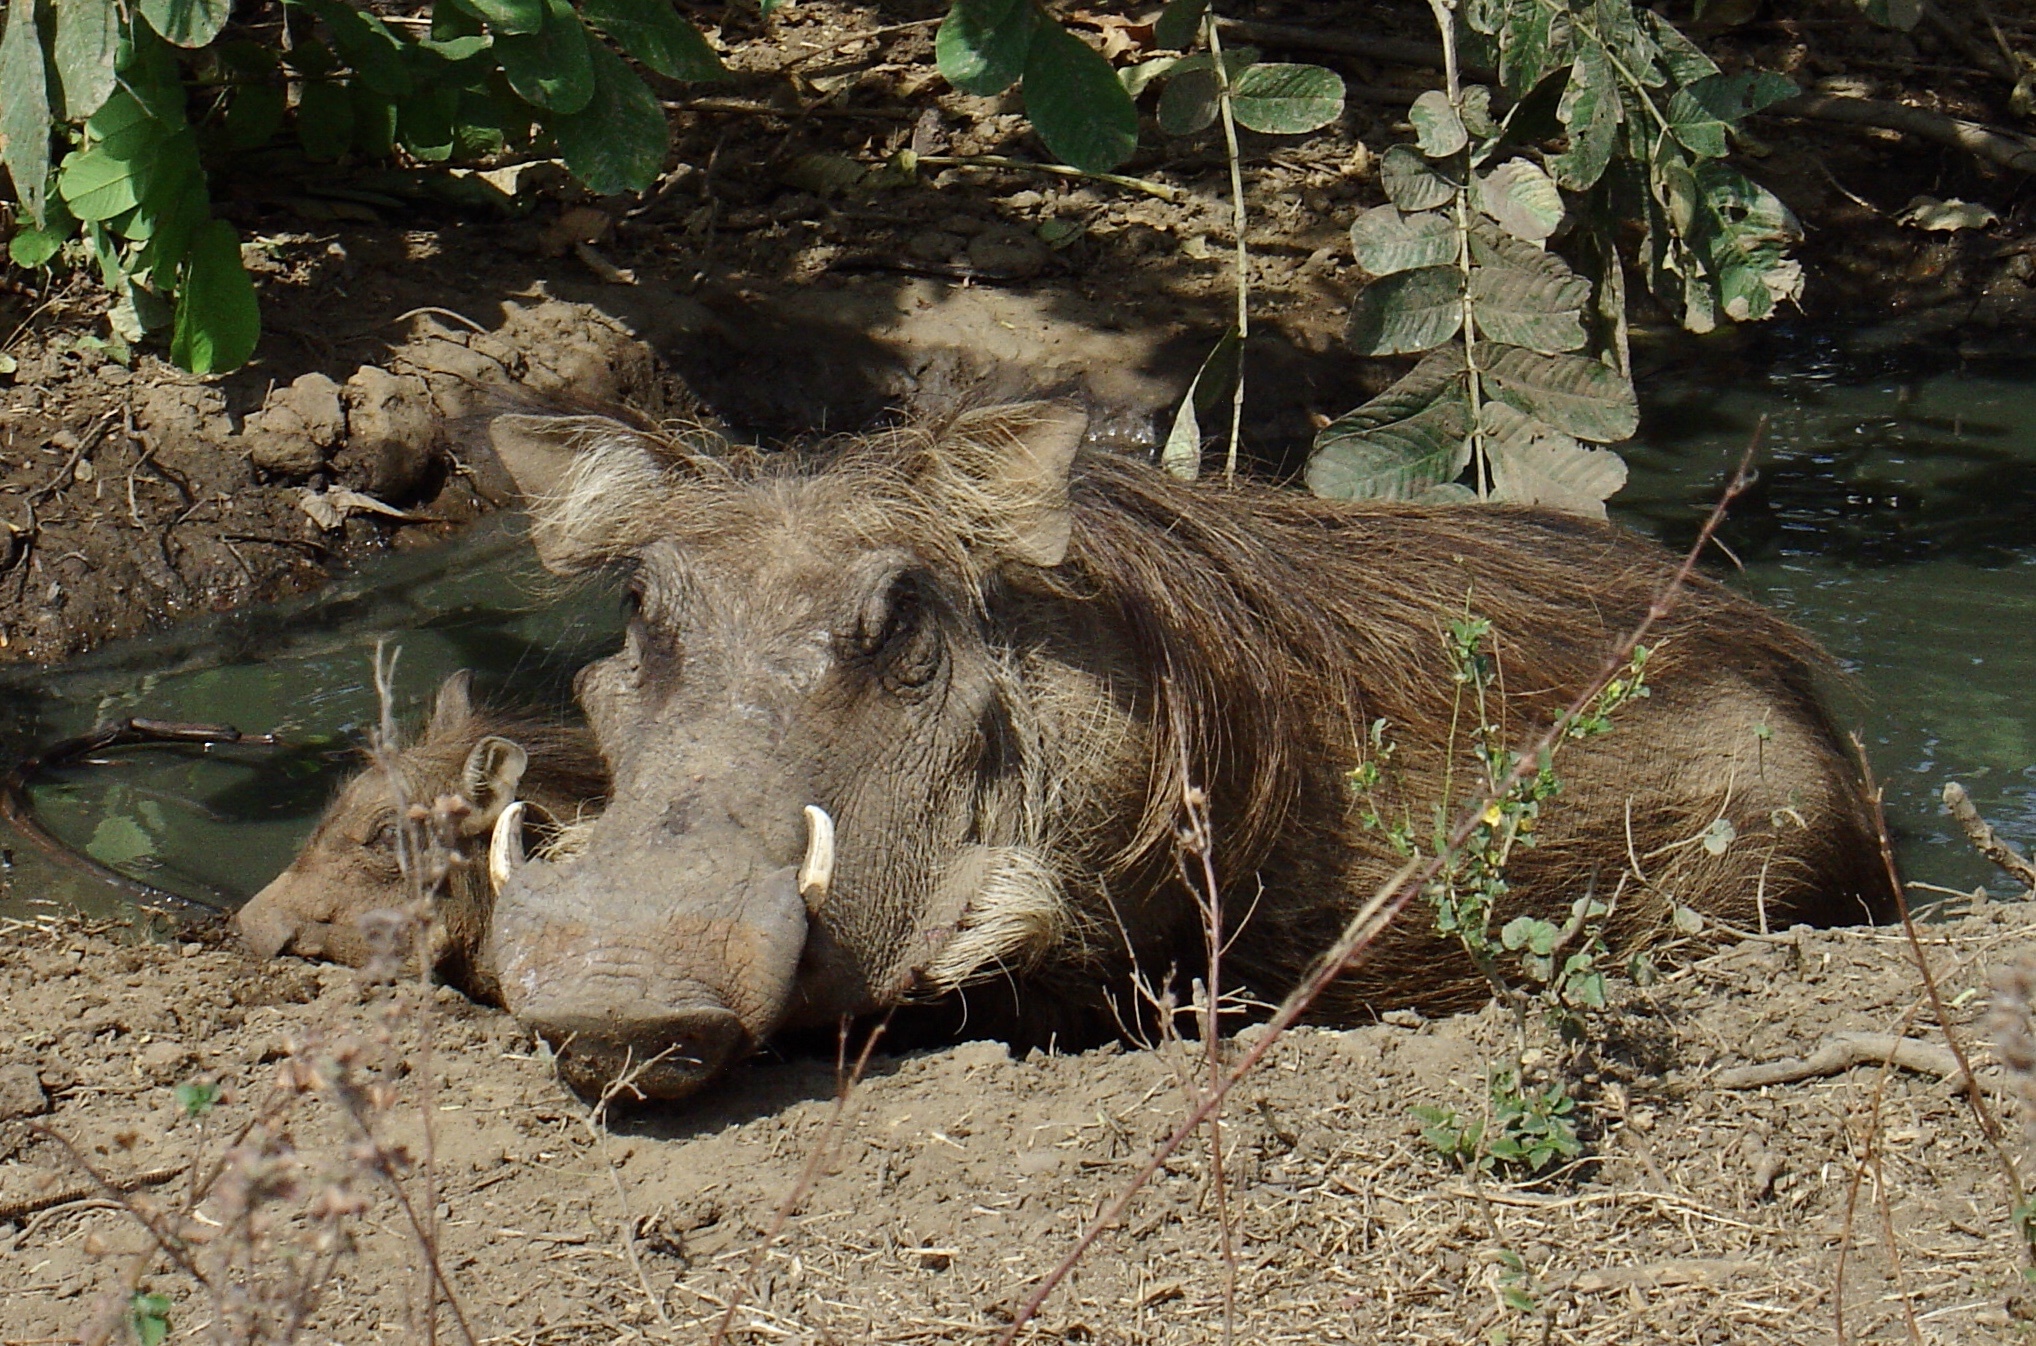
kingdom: Animalia
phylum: Chordata
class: Mammalia
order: Artiodactyla
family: Suidae
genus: Phacochoerus
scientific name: Phacochoerus africanus
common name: Common warthog
